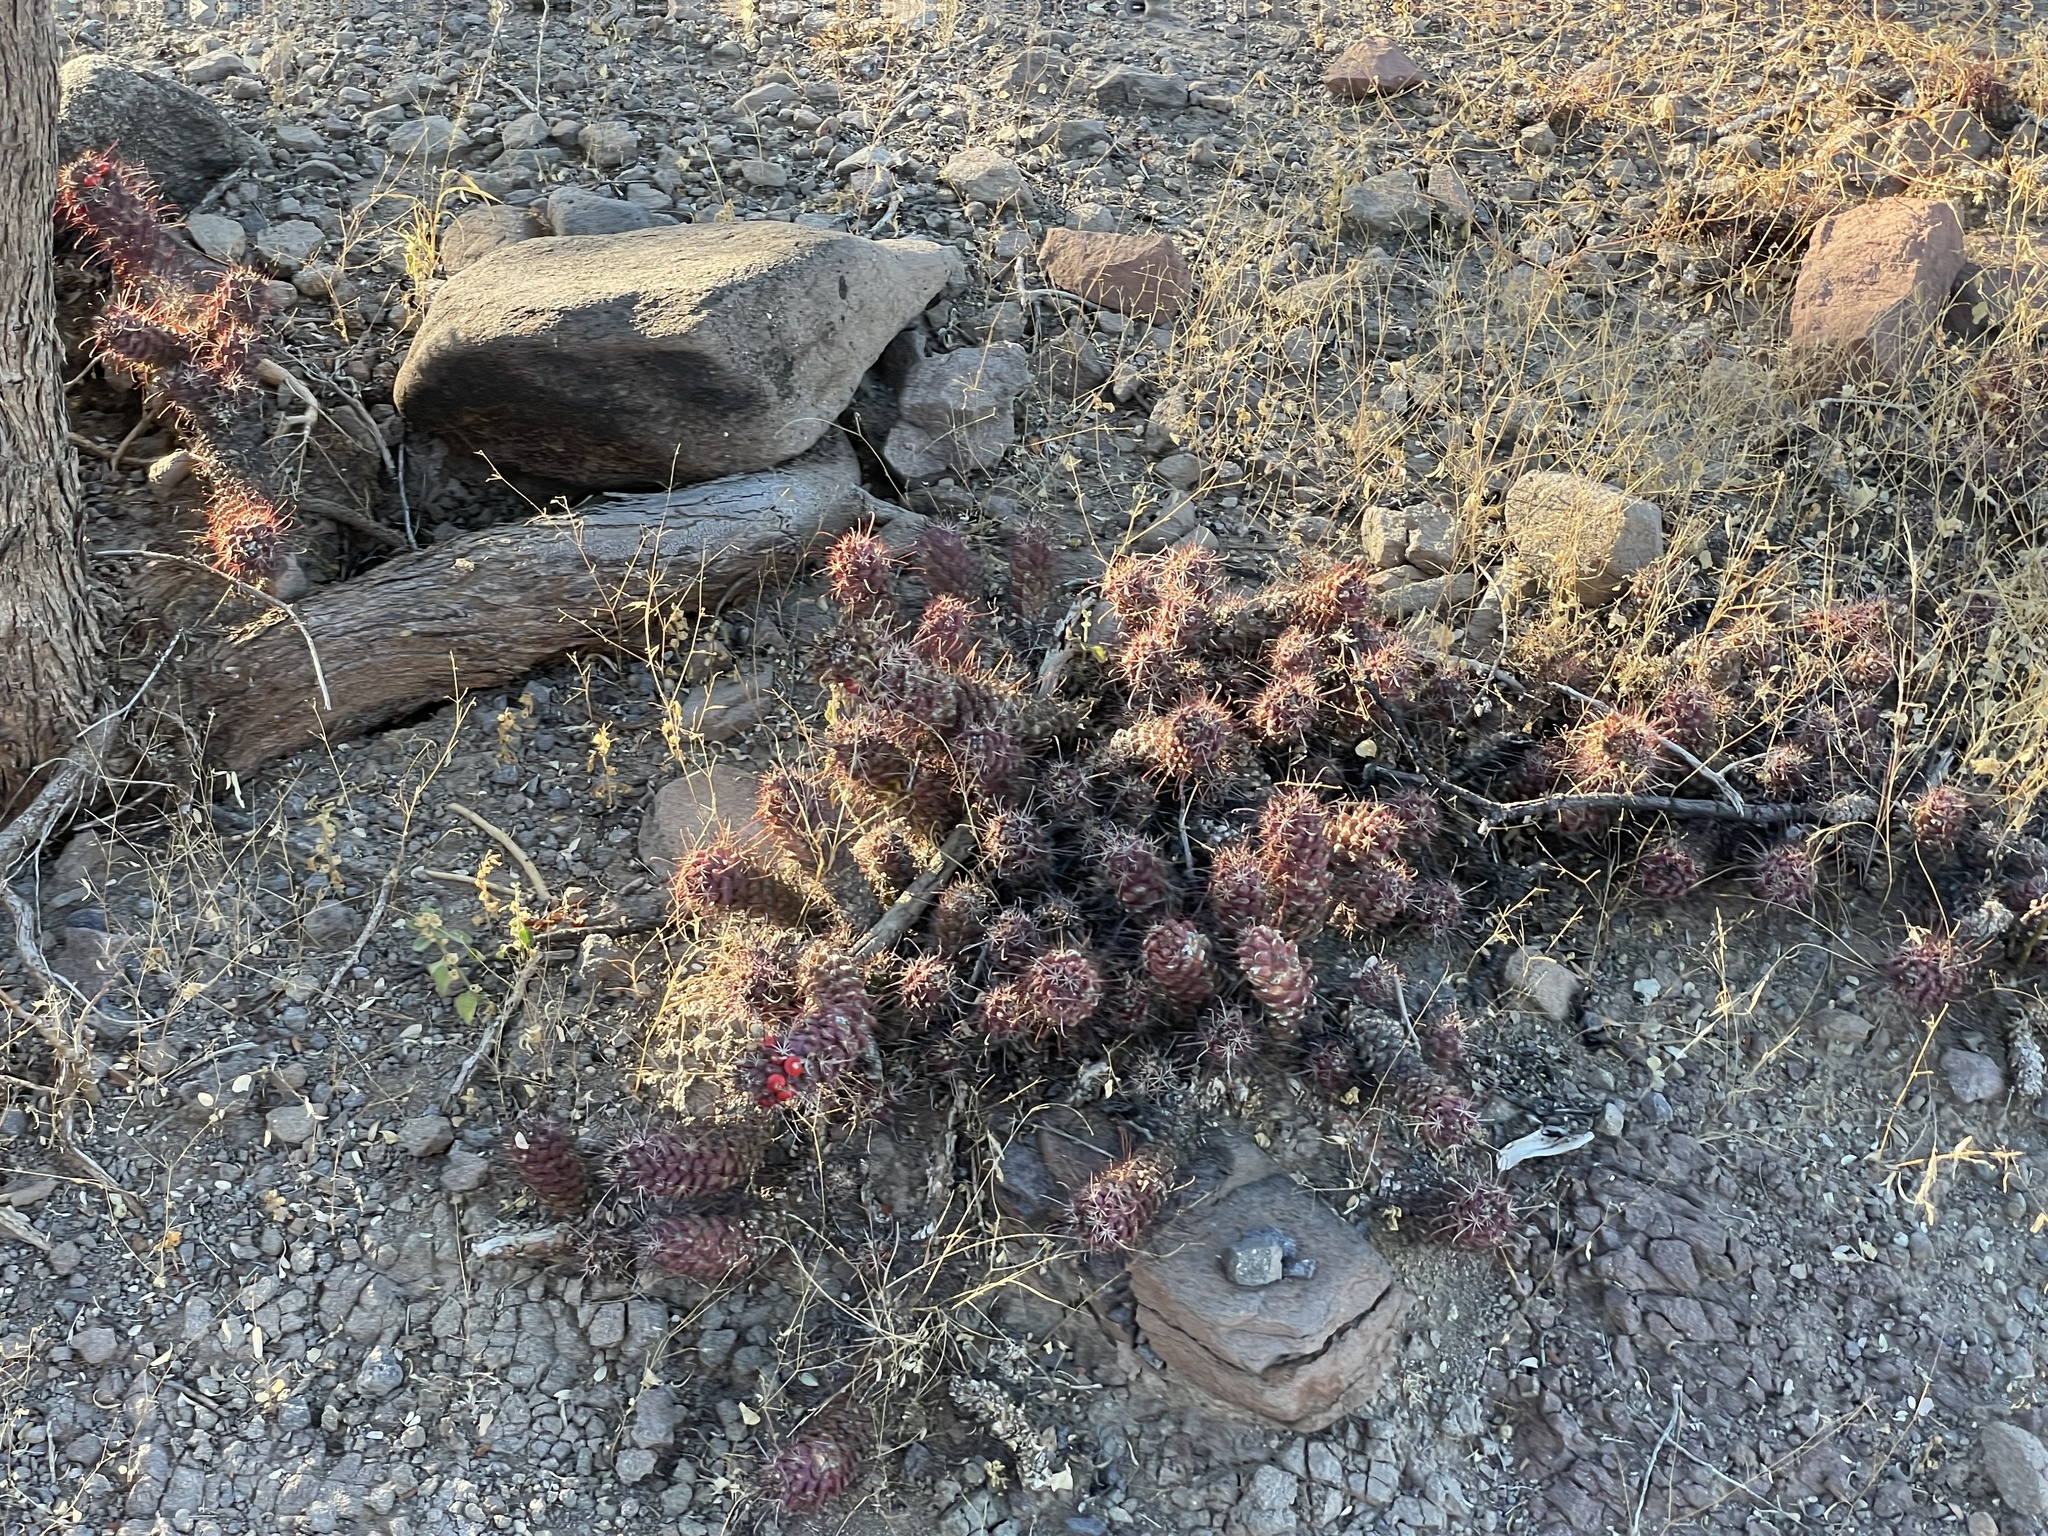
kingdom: Plantae
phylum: Tracheophyta
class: Magnoliopsida
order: Caryophyllales
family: Cactaceae
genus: Cochemiea
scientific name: Cochemiea poselgeri
